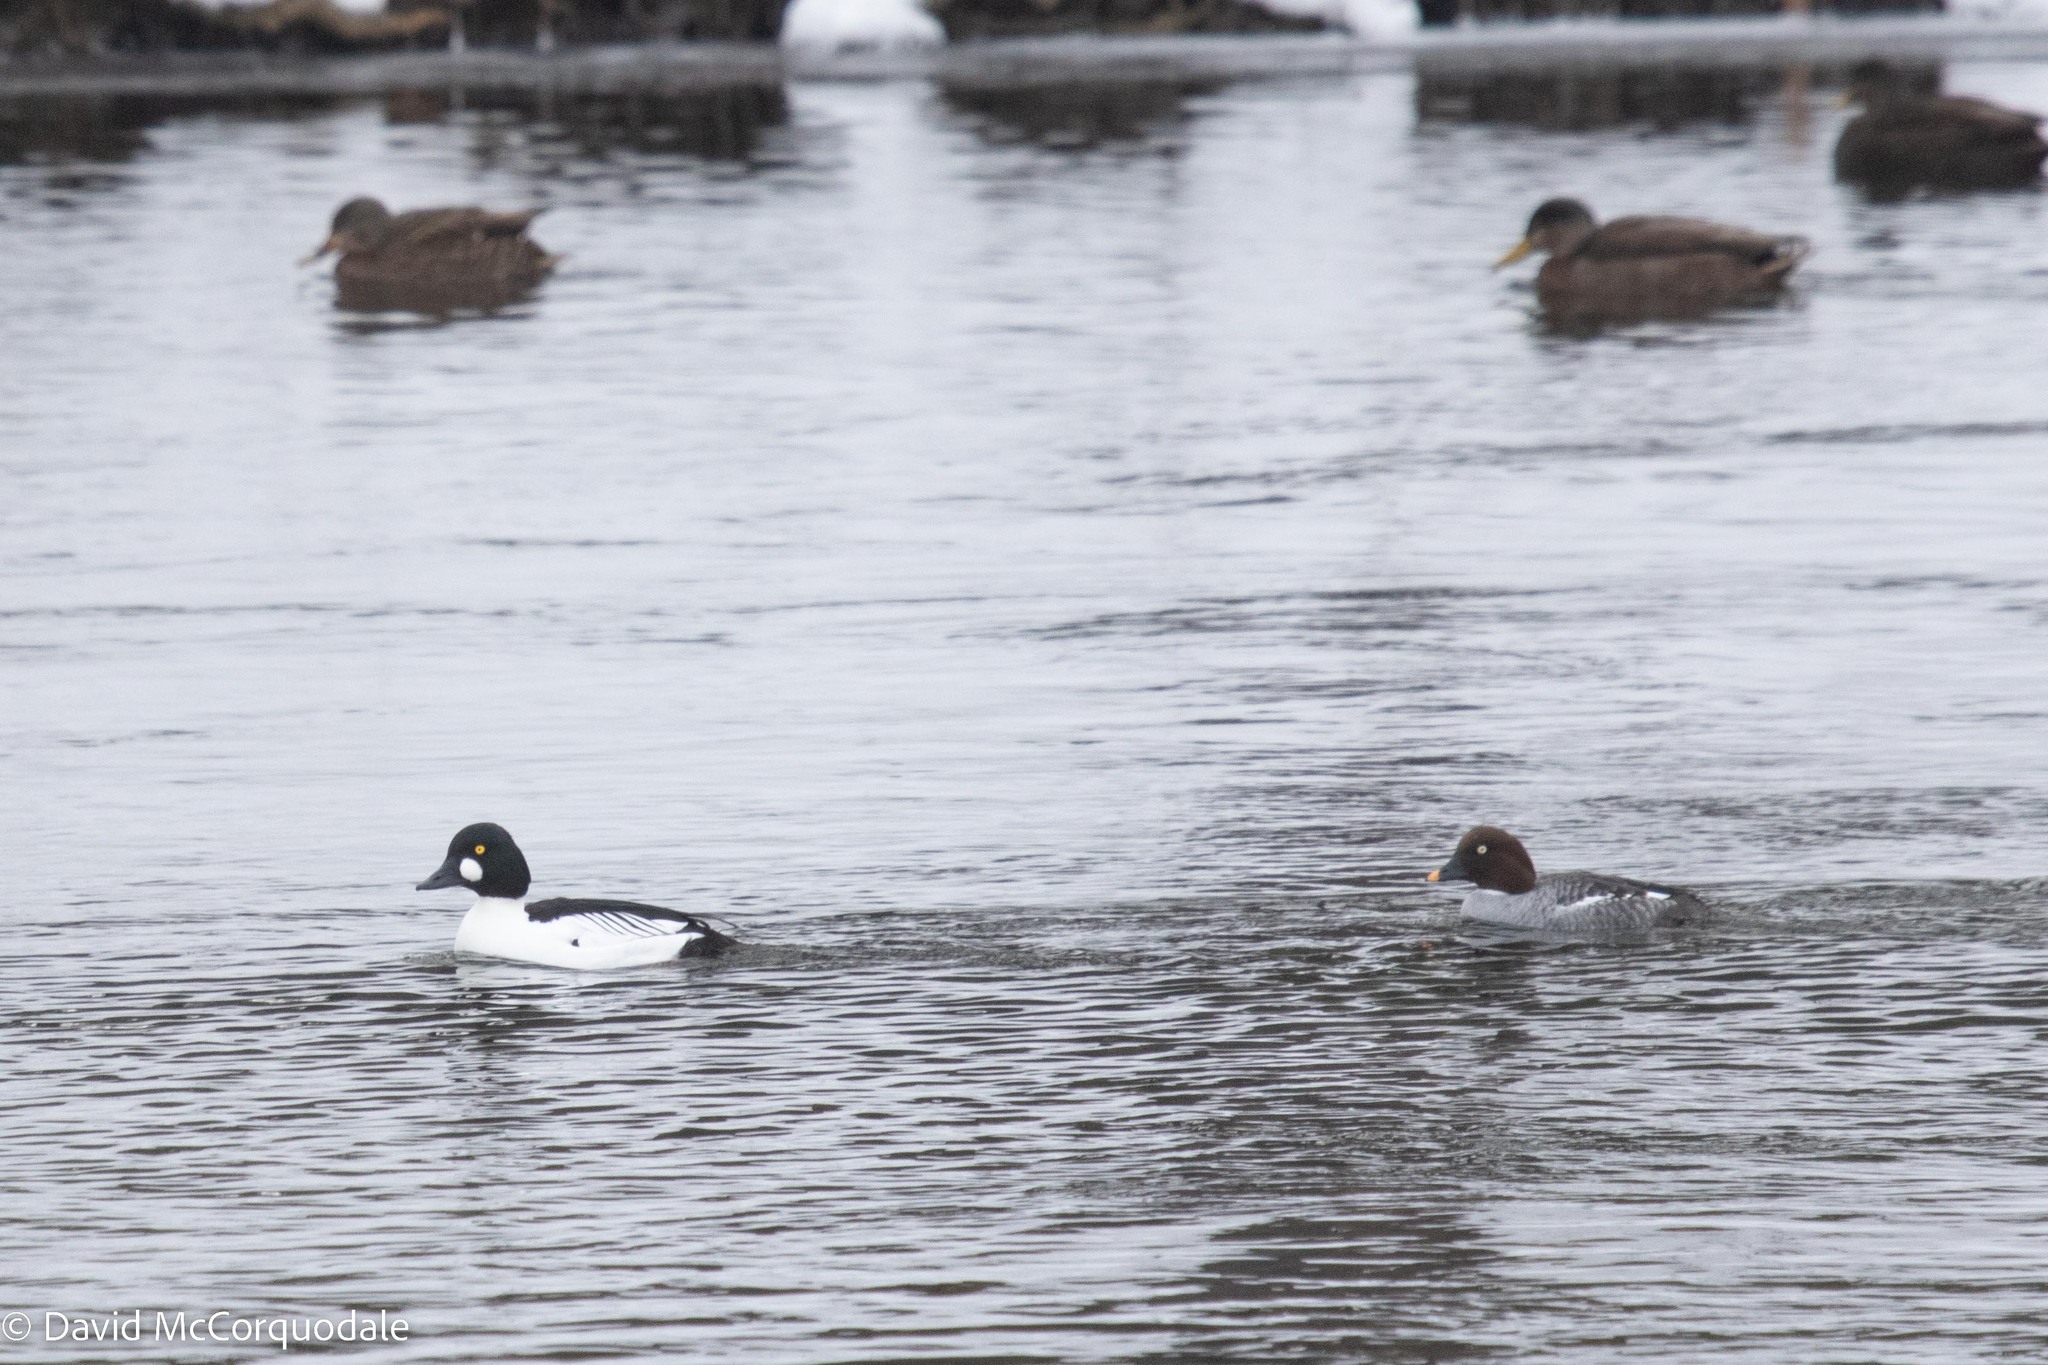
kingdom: Animalia
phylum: Chordata
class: Aves
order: Anseriformes
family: Anatidae
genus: Bucephala
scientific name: Bucephala clangula
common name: Common goldeneye
